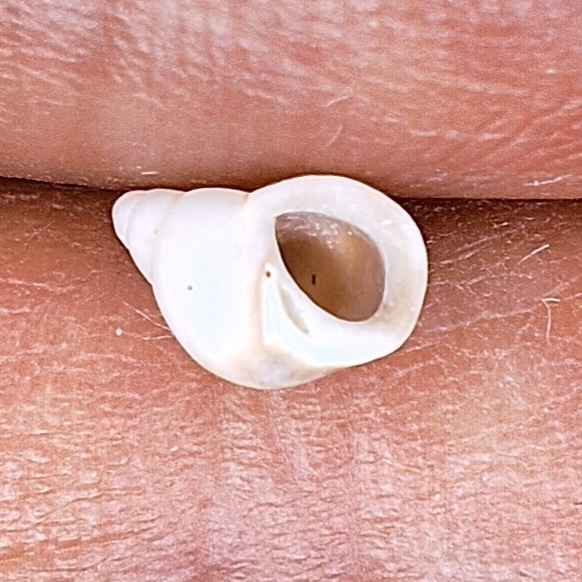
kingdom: Animalia
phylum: Mollusca
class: Gastropoda
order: Littorinimorpha
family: Littorinidae
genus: Lacuna
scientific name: Lacuna vincta
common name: Banded chink shell
